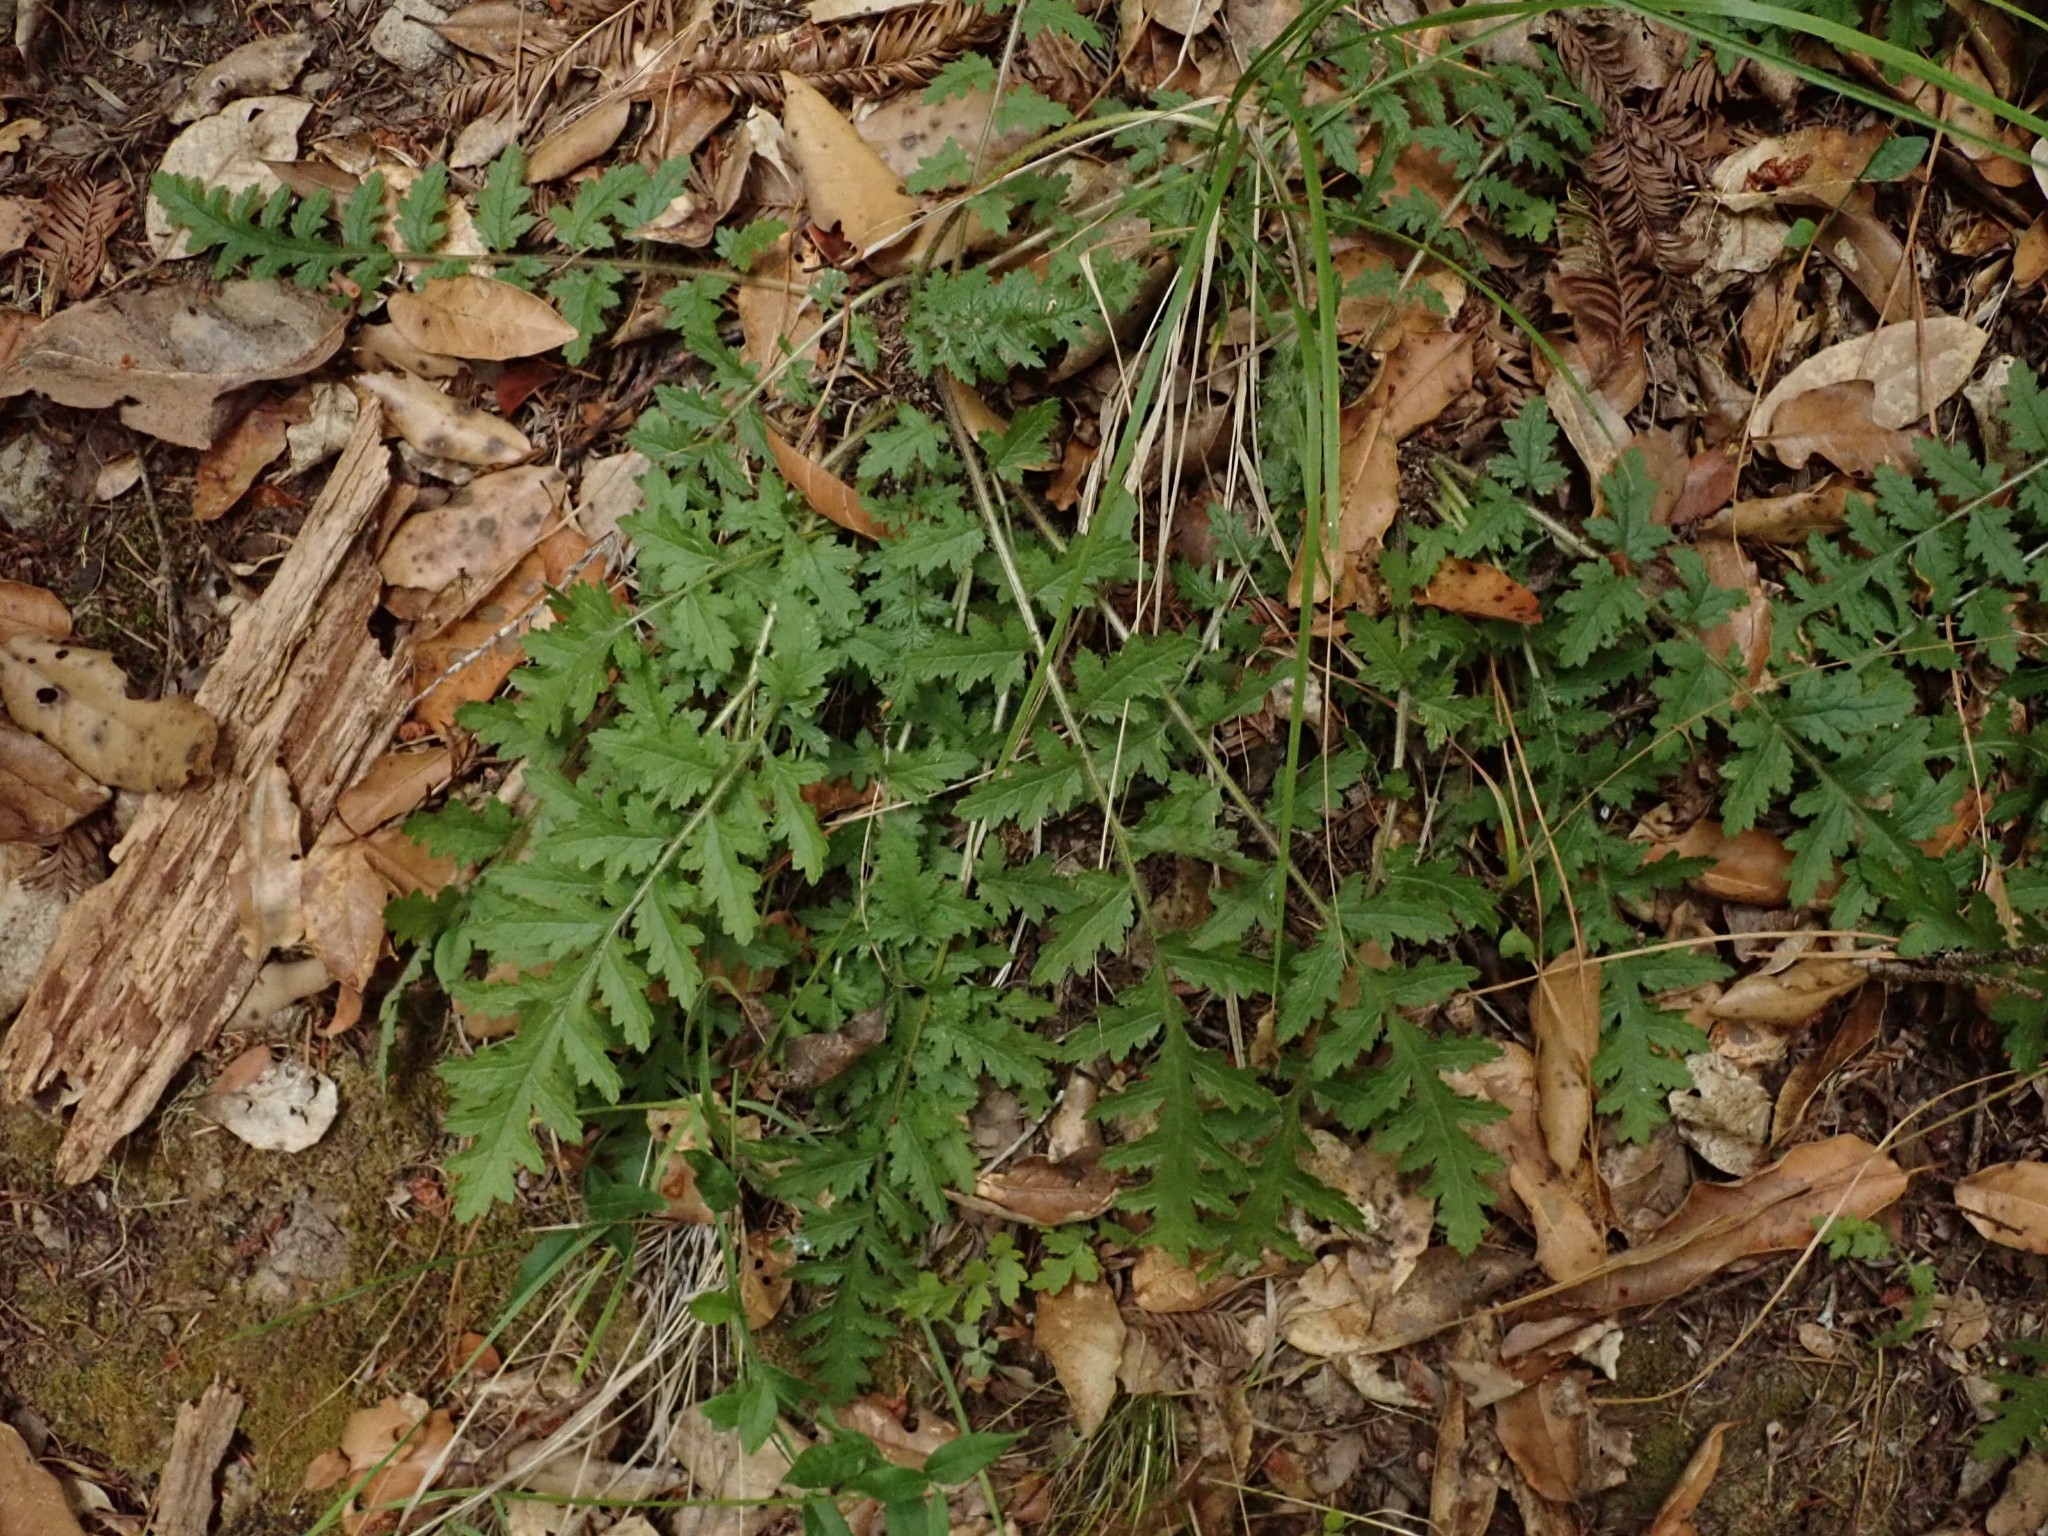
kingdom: Plantae
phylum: Tracheophyta
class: Magnoliopsida
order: Lamiales
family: Orobanchaceae
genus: Pedicularis
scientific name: Pedicularis dudleyi
